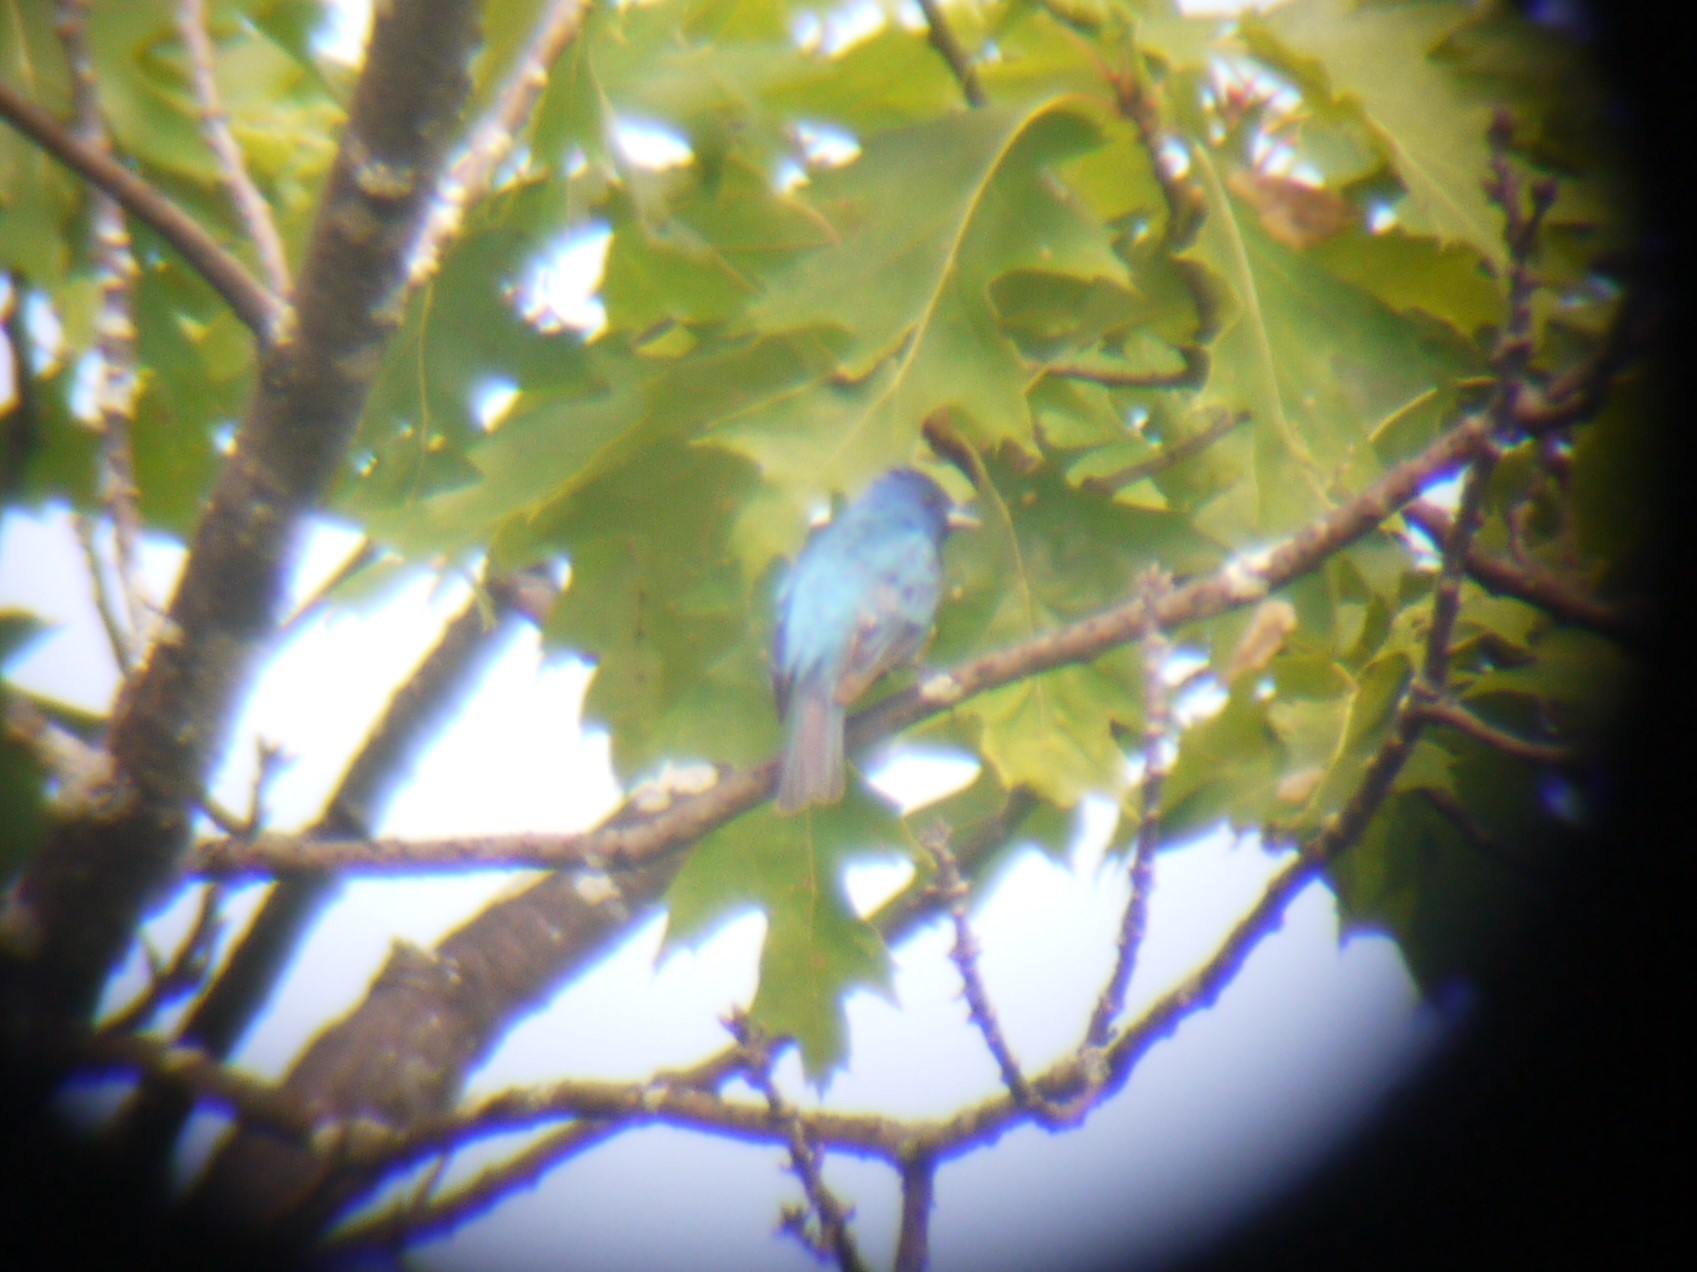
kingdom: Animalia
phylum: Chordata
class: Aves
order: Passeriformes
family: Cardinalidae
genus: Passerina
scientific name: Passerina cyanea
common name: Indigo bunting
